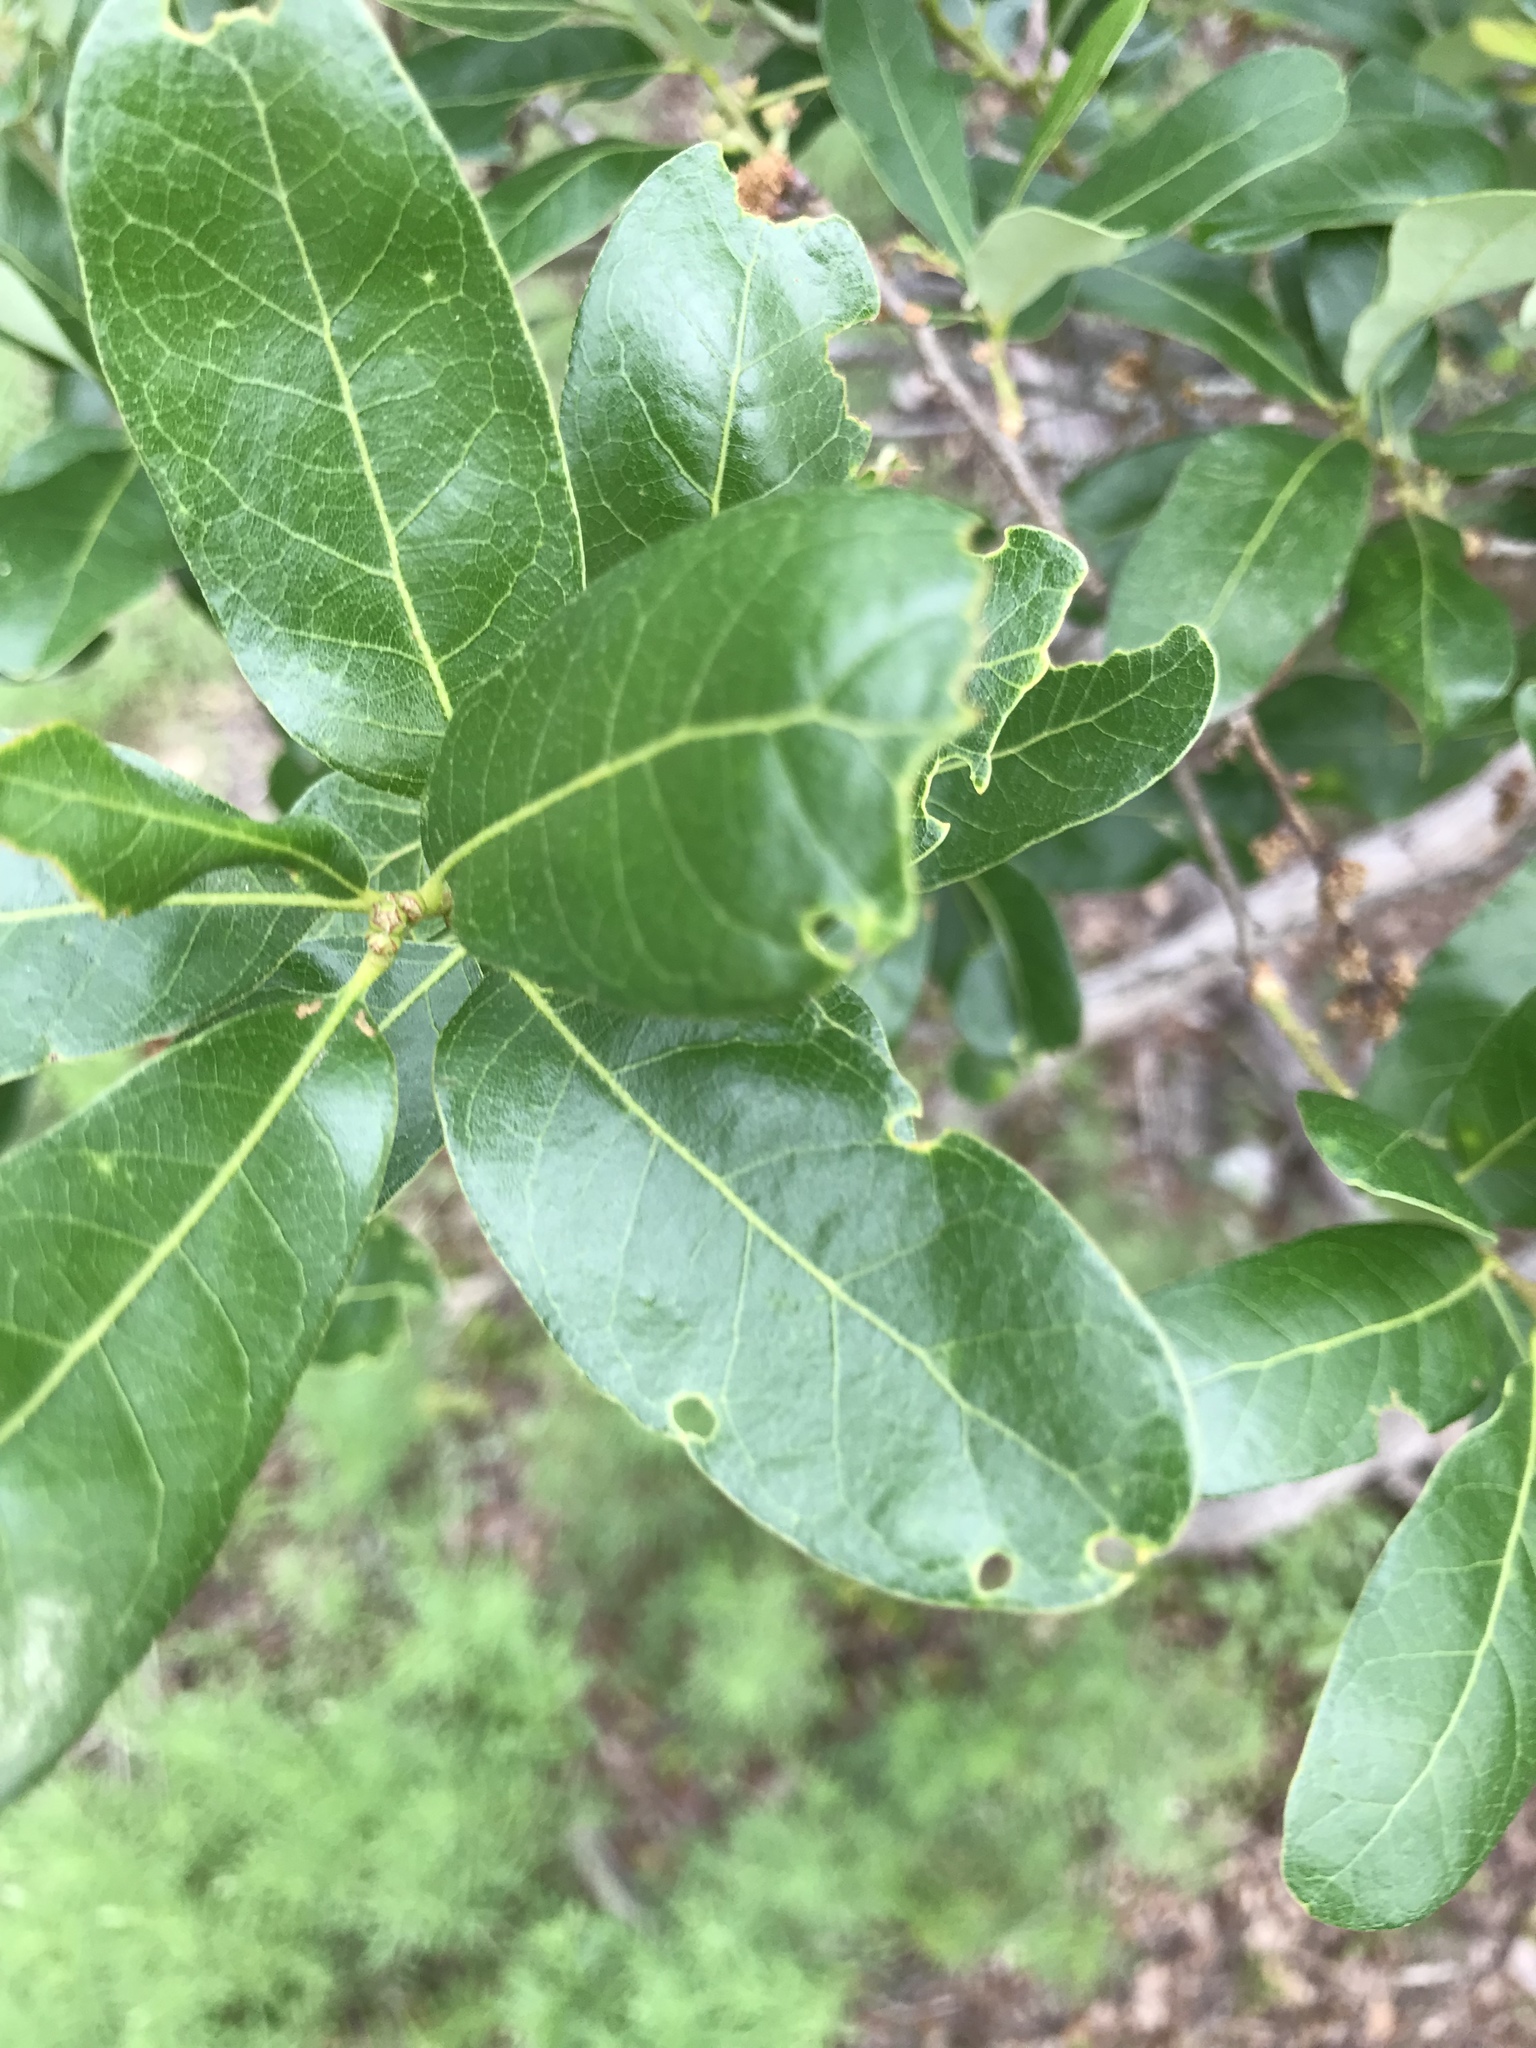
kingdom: Plantae
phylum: Tracheophyta
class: Magnoliopsida
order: Fagales
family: Fagaceae
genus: Quercus
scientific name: Quercus sinuata
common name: Durand oak
